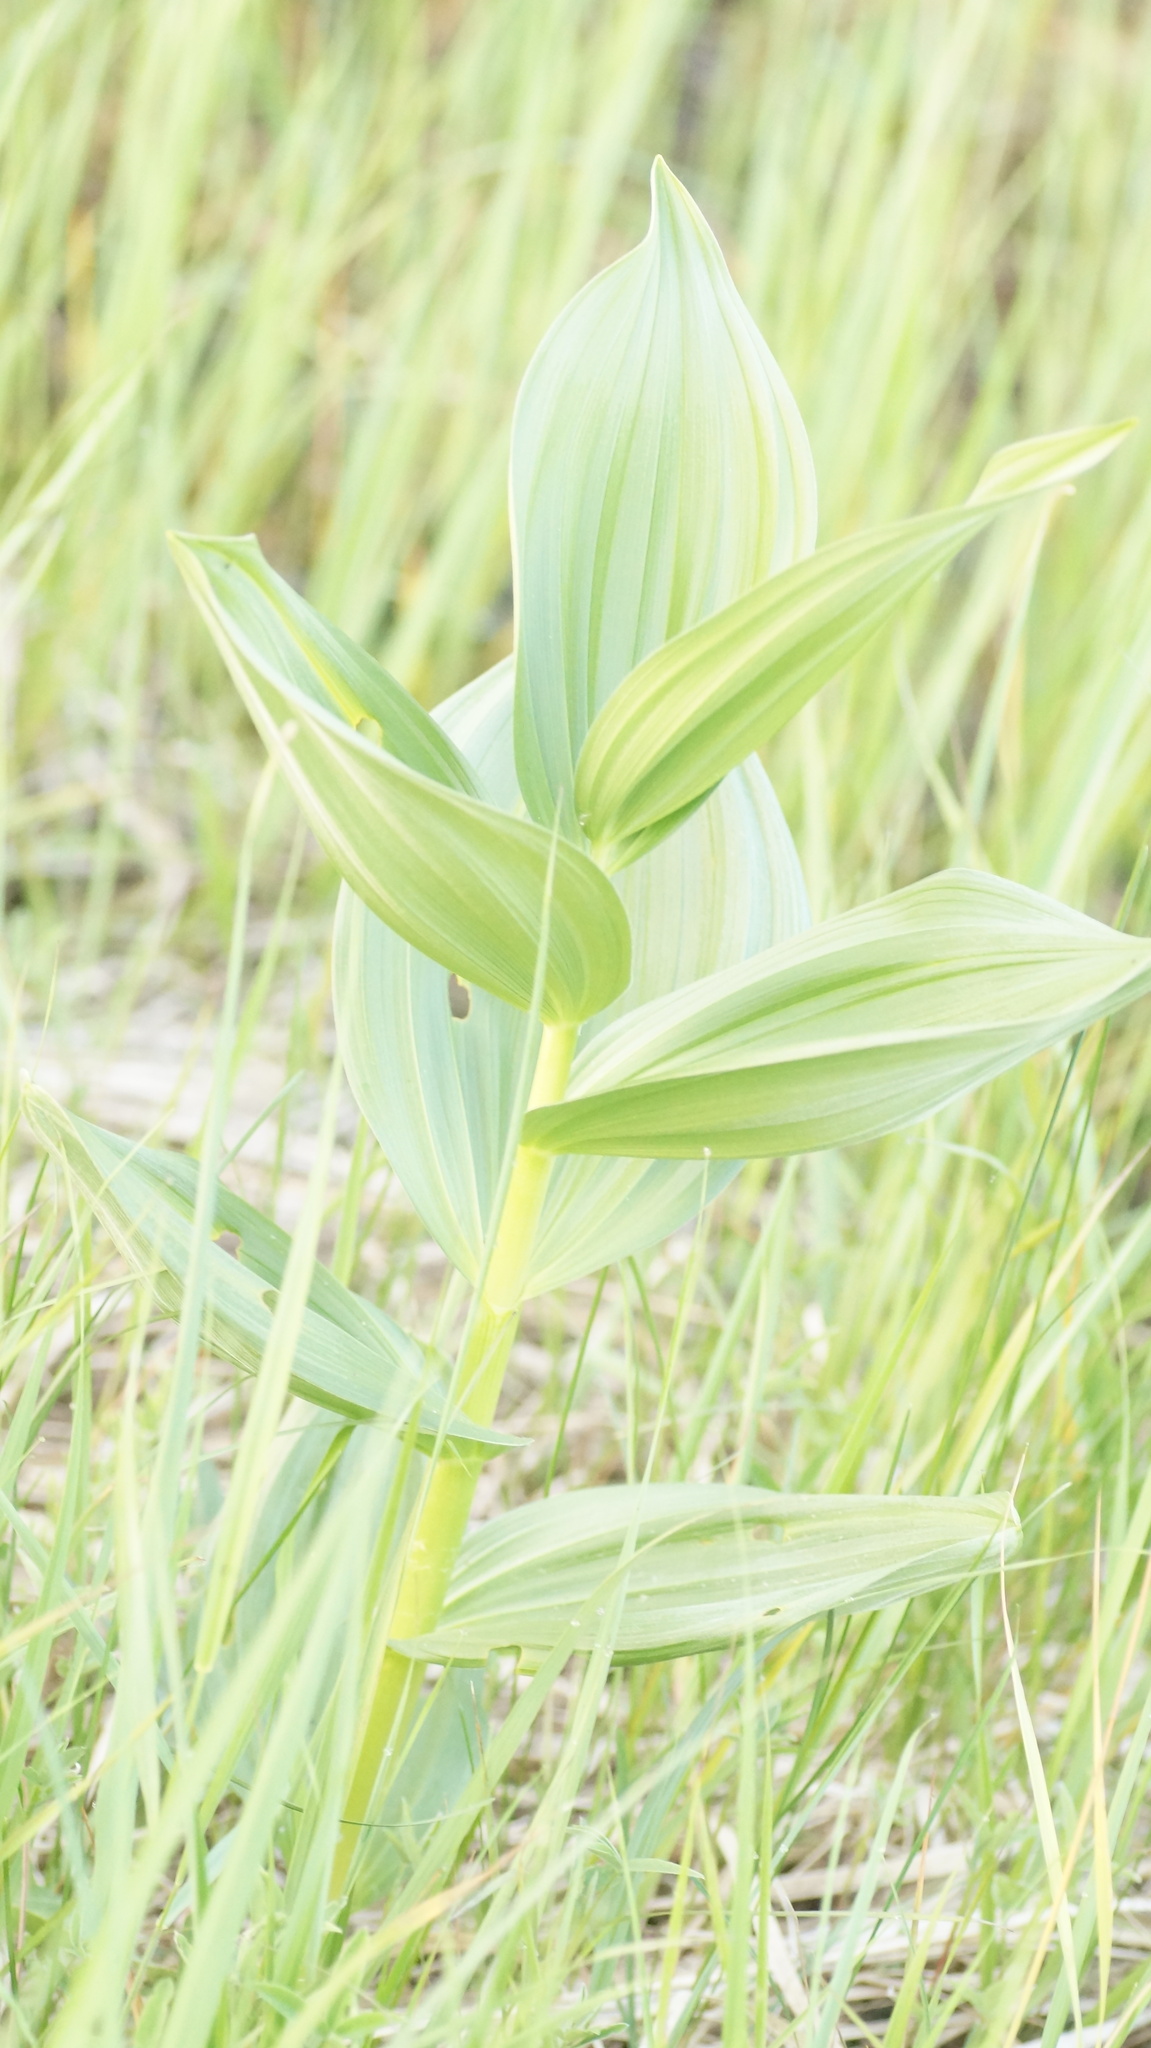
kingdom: Plantae
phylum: Tracheophyta
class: Liliopsida
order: Liliales
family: Melanthiaceae
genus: Veratrum
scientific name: Veratrum lobelianum
